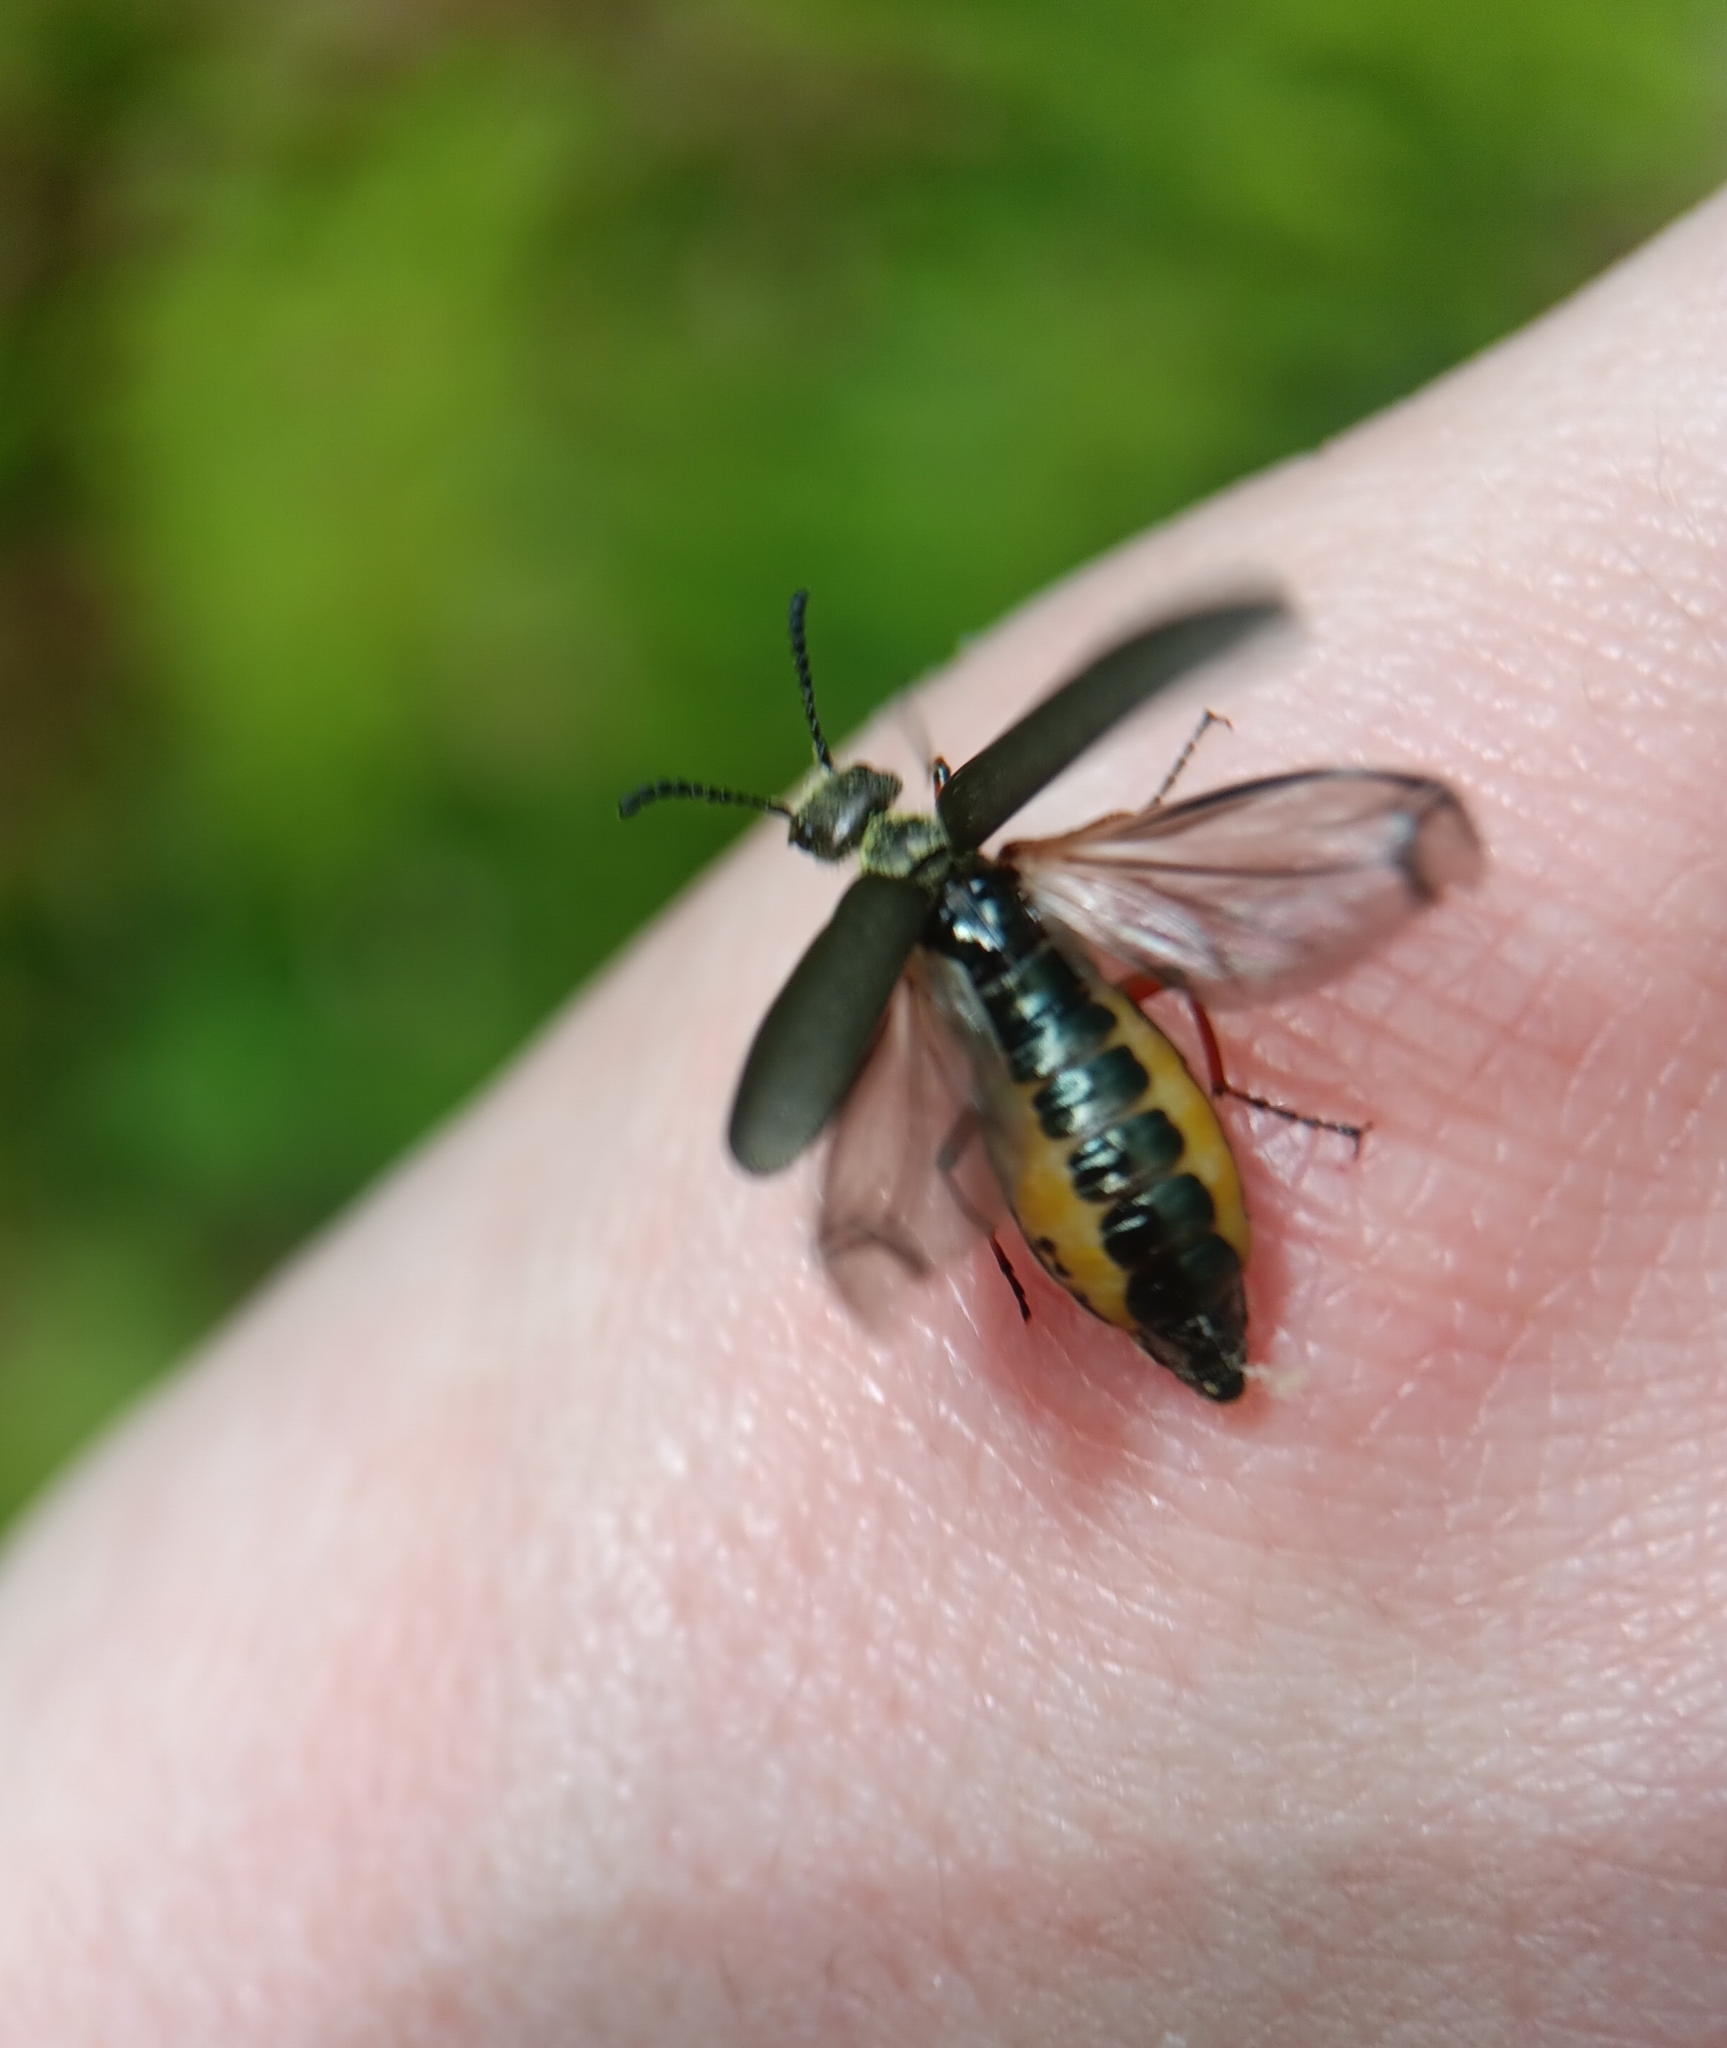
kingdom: Animalia
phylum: Arthropoda
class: Insecta
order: Coleoptera
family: Meloidae
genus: Lytta
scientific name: Lytta aenea
